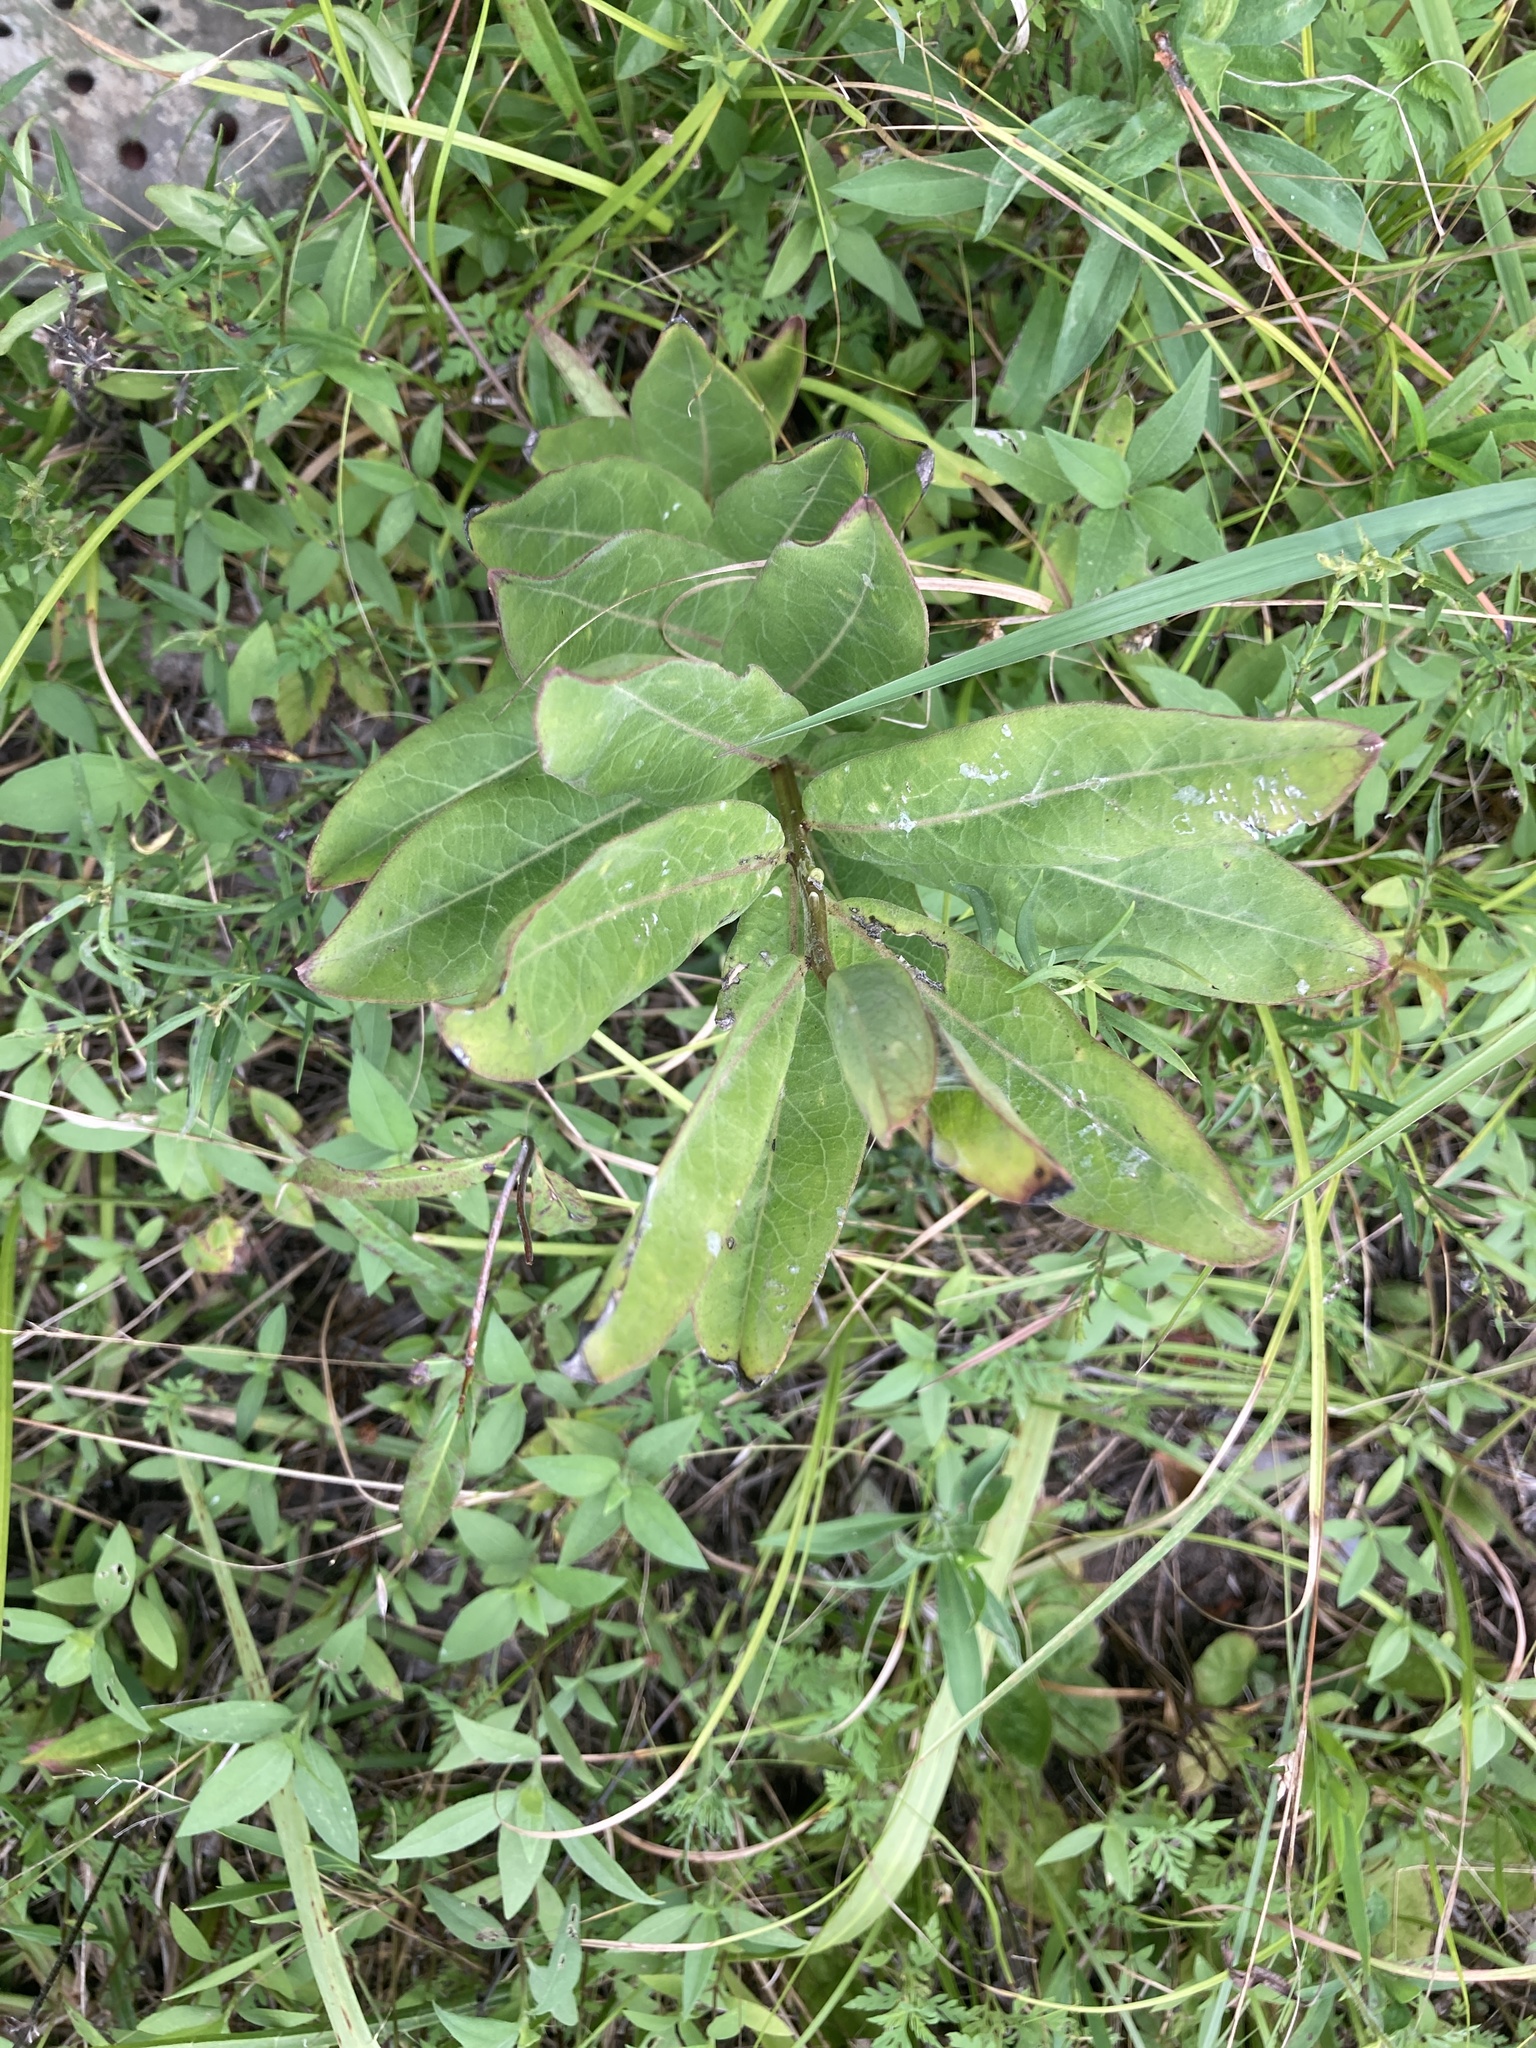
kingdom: Plantae
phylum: Tracheophyta
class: Magnoliopsida
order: Gentianales
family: Apocynaceae
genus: Asclepias
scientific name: Asclepias viridis
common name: Antelope-horns
